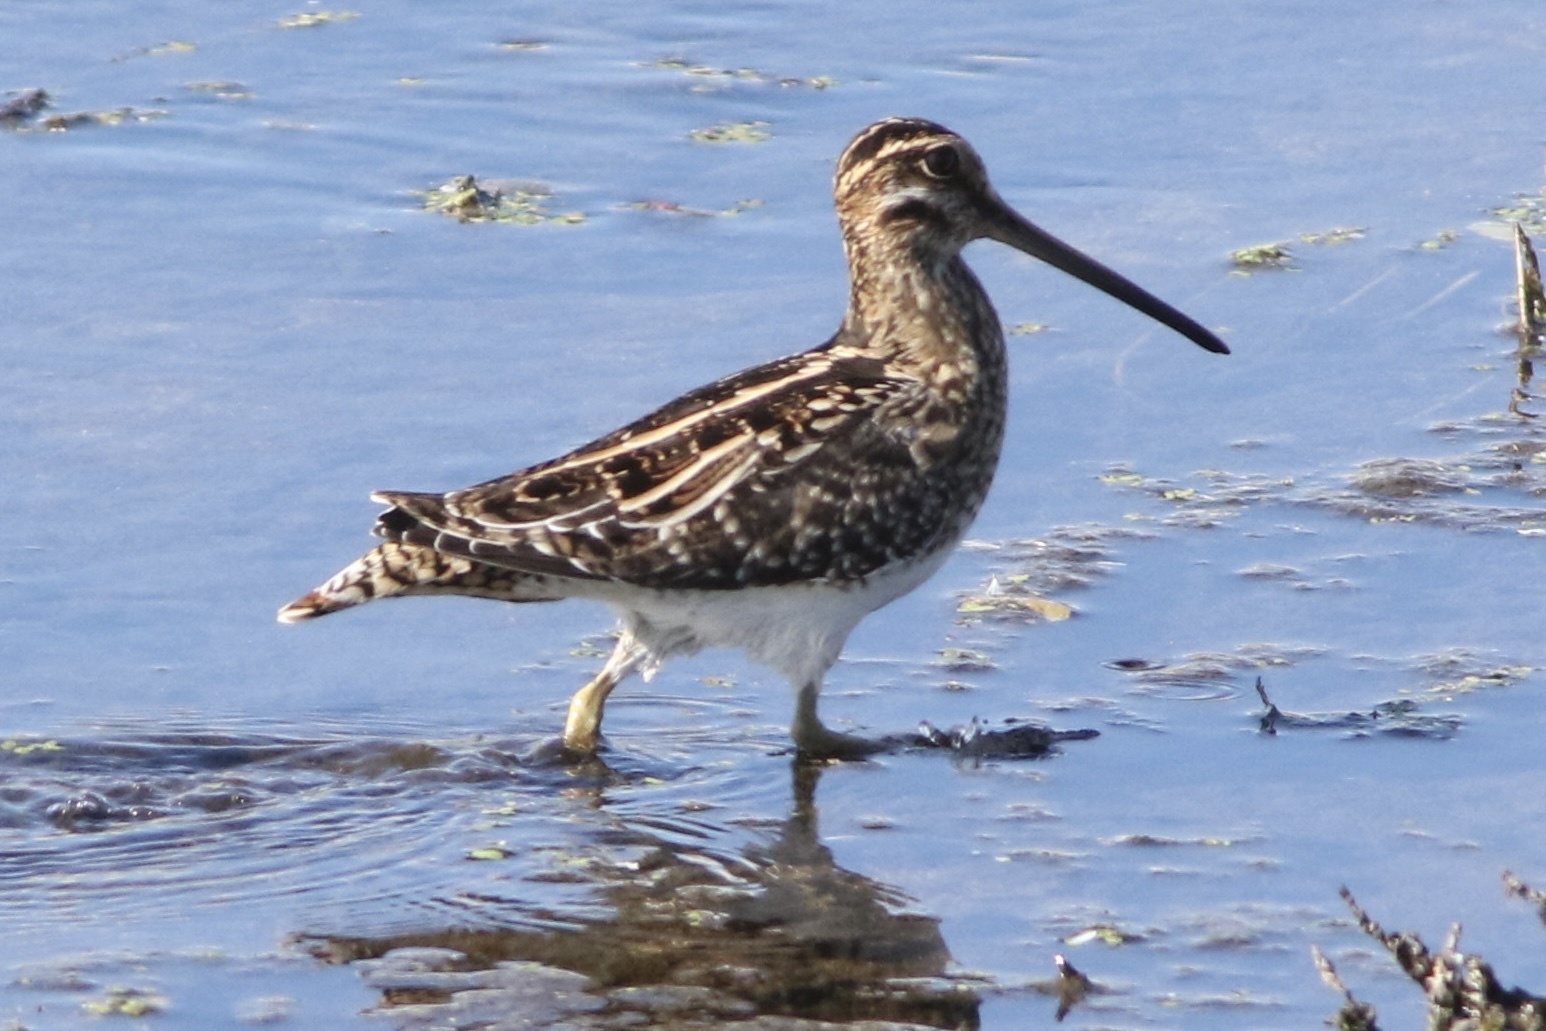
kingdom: Animalia
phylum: Chordata
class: Aves
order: Charadriiformes
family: Scolopacidae
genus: Gallinago
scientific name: Gallinago delicata
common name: Wilson's snipe
